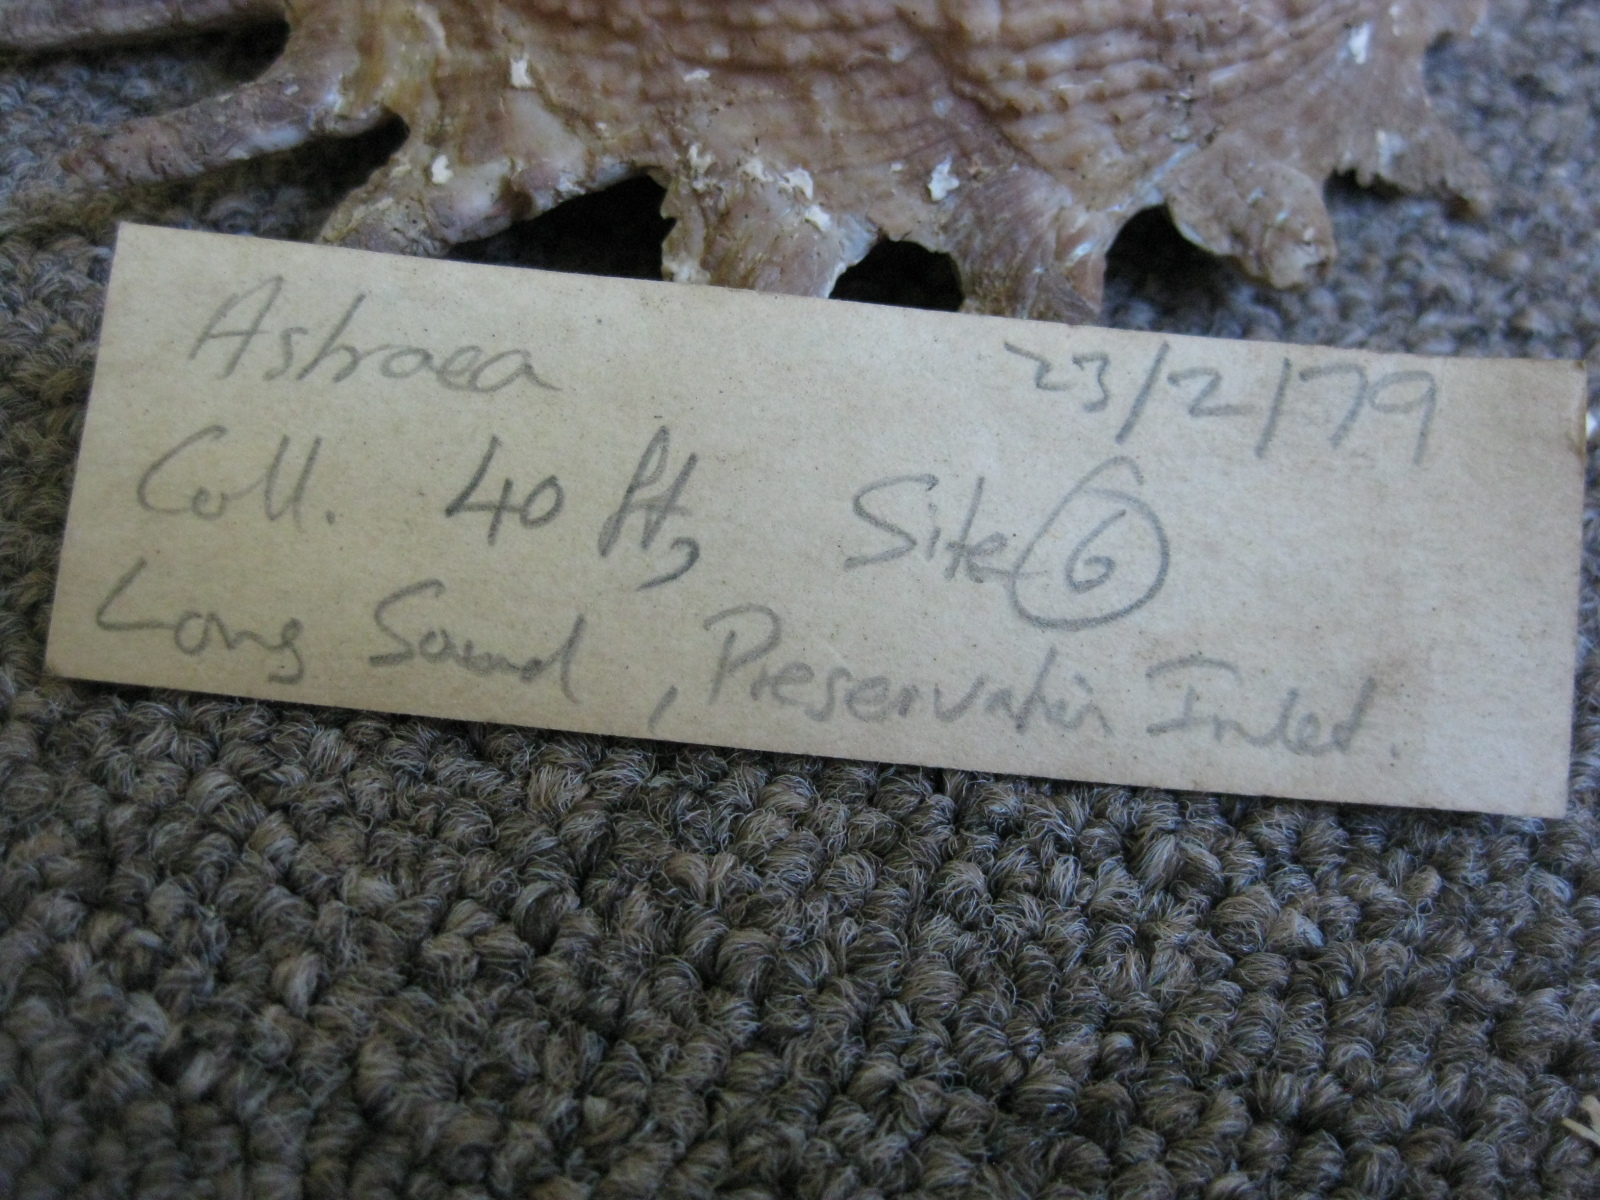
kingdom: Animalia
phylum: Mollusca
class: Gastropoda
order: Trochida
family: Turbinidae
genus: Astraea
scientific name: Astraea heliotropium
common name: Sun shell
